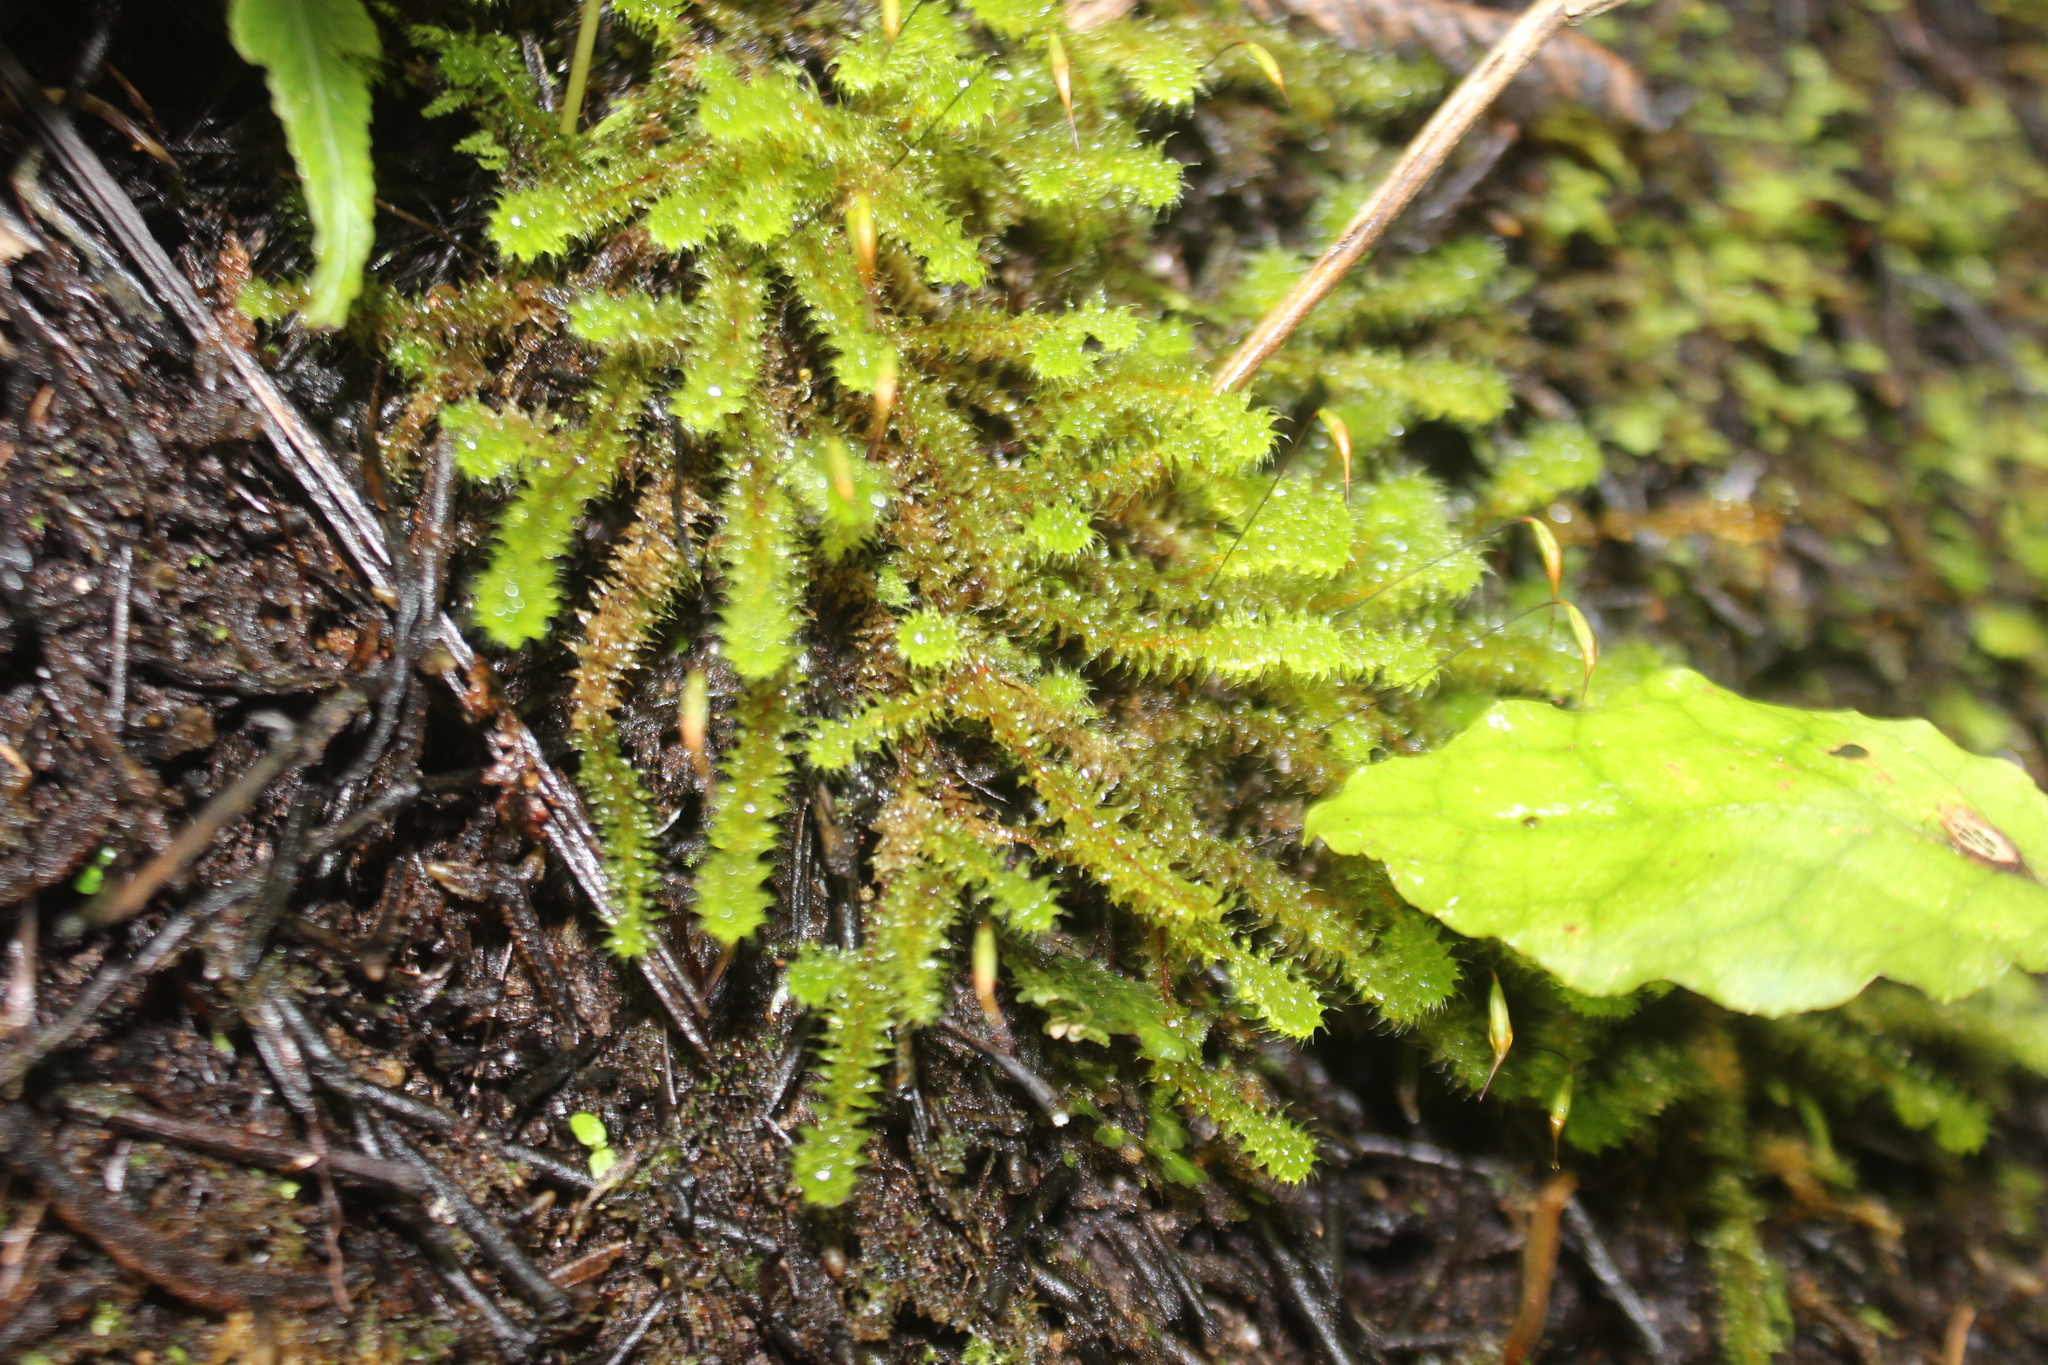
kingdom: Plantae
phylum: Bryophyta
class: Bryopsida
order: Ptychomniales
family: Ptychomniaceae
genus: Ptychomnion
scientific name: Ptychomnion aciculare
